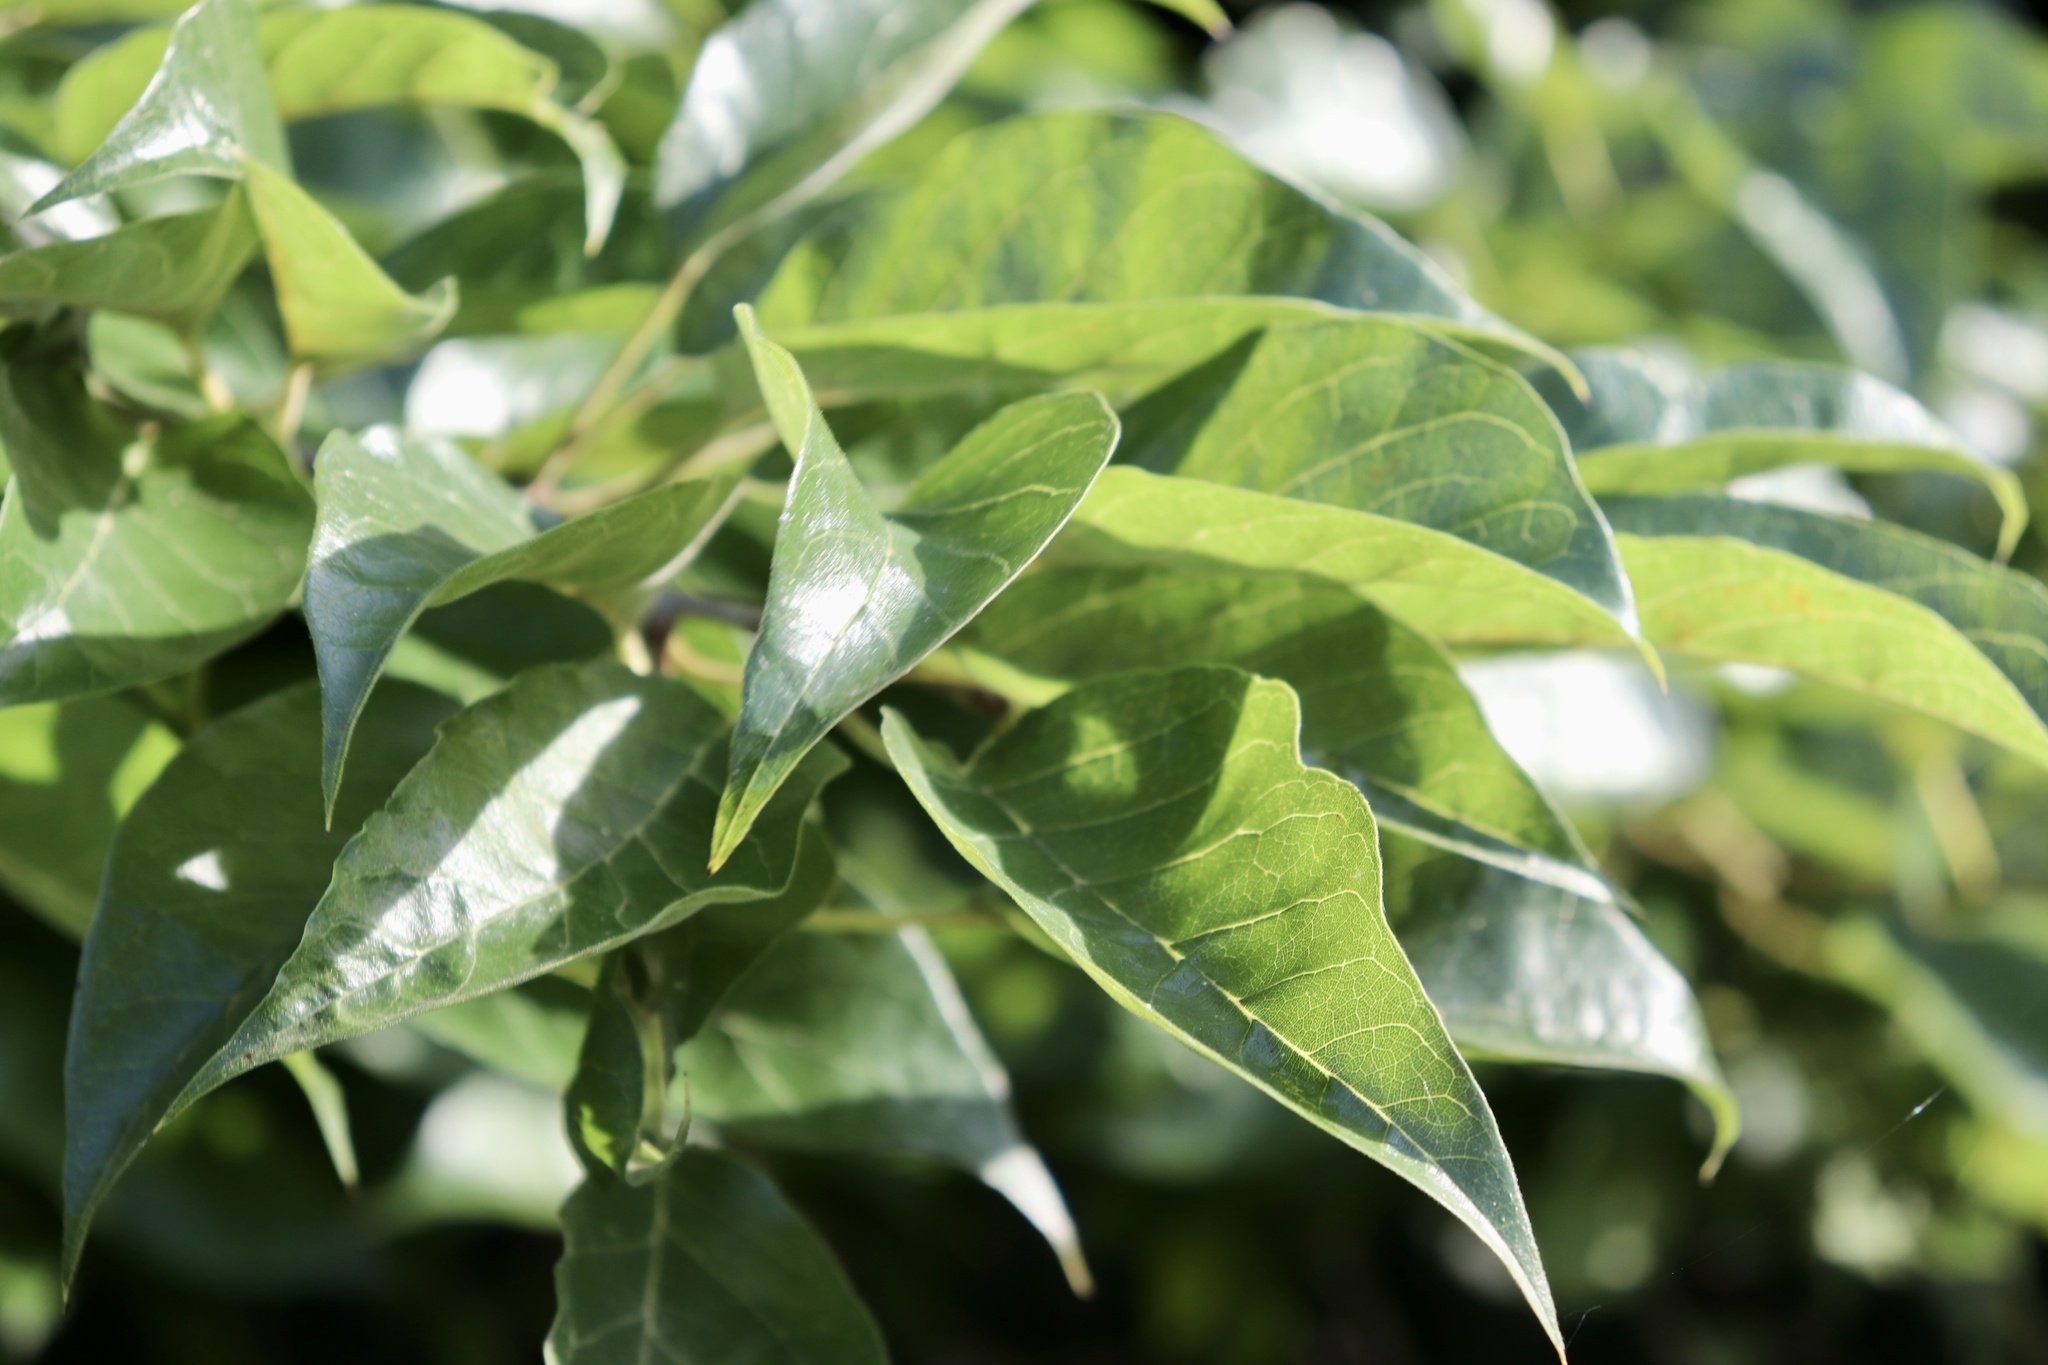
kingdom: Plantae
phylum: Tracheophyta
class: Magnoliopsida
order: Rosales
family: Moraceae
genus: Maclura
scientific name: Maclura pomifera
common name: Osage-orange
